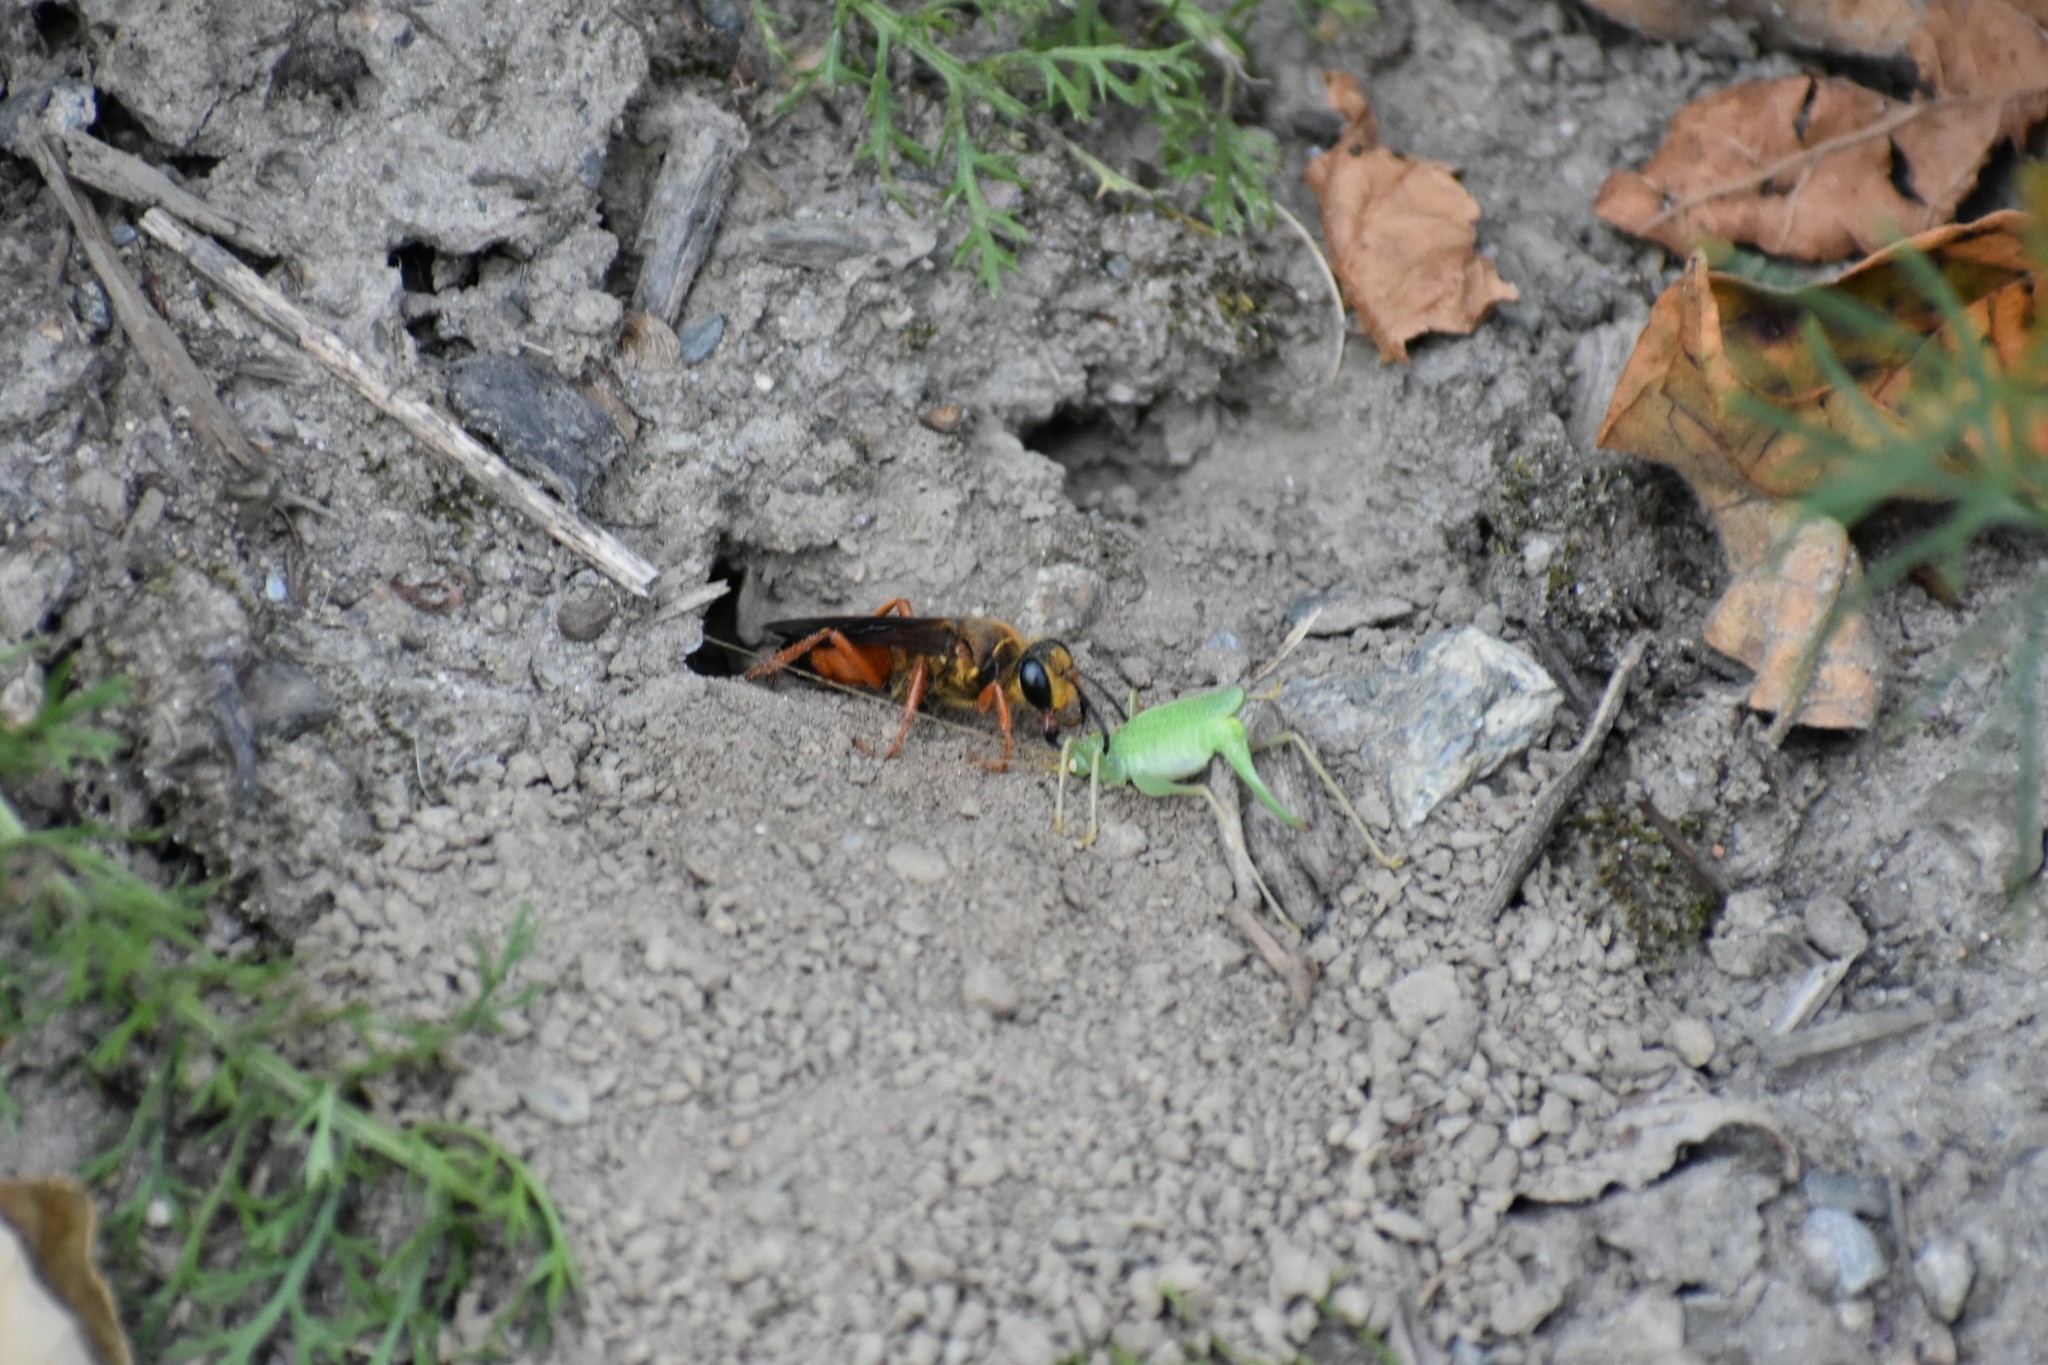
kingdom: Animalia
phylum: Arthropoda
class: Insecta
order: Hymenoptera
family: Sphecidae
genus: Sphex
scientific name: Sphex ichneumoneus
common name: Great golden digger wasp
